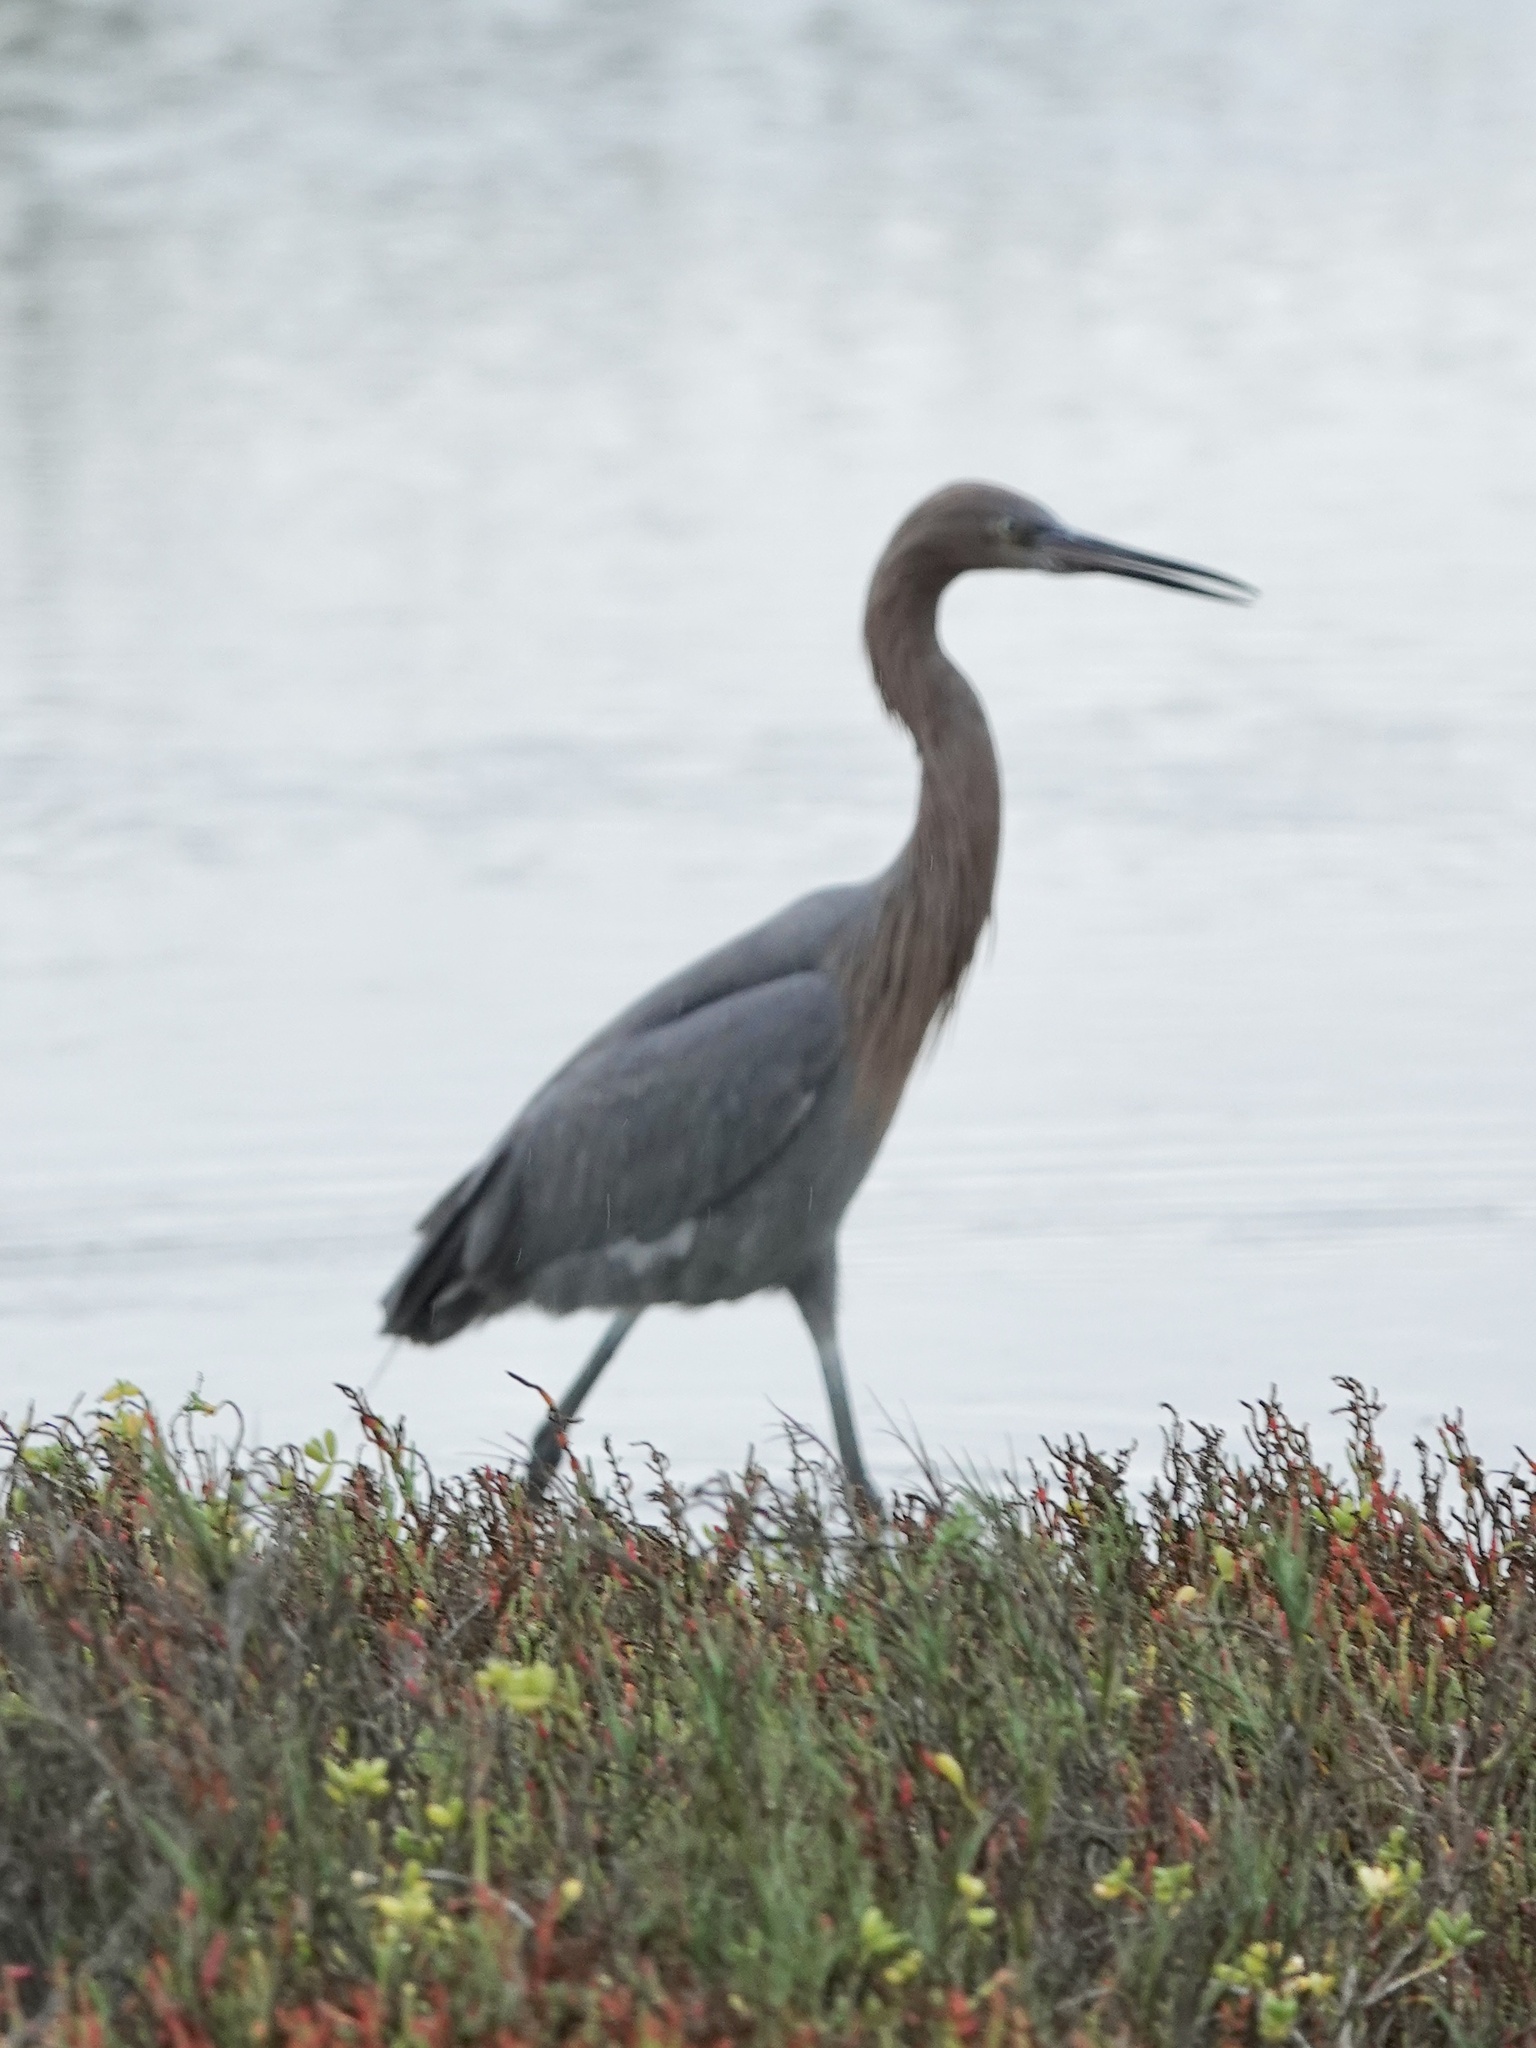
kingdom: Animalia
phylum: Chordata
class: Aves
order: Pelecaniformes
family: Ardeidae
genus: Egretta
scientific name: Egretta rufescens
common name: Reddish egret
